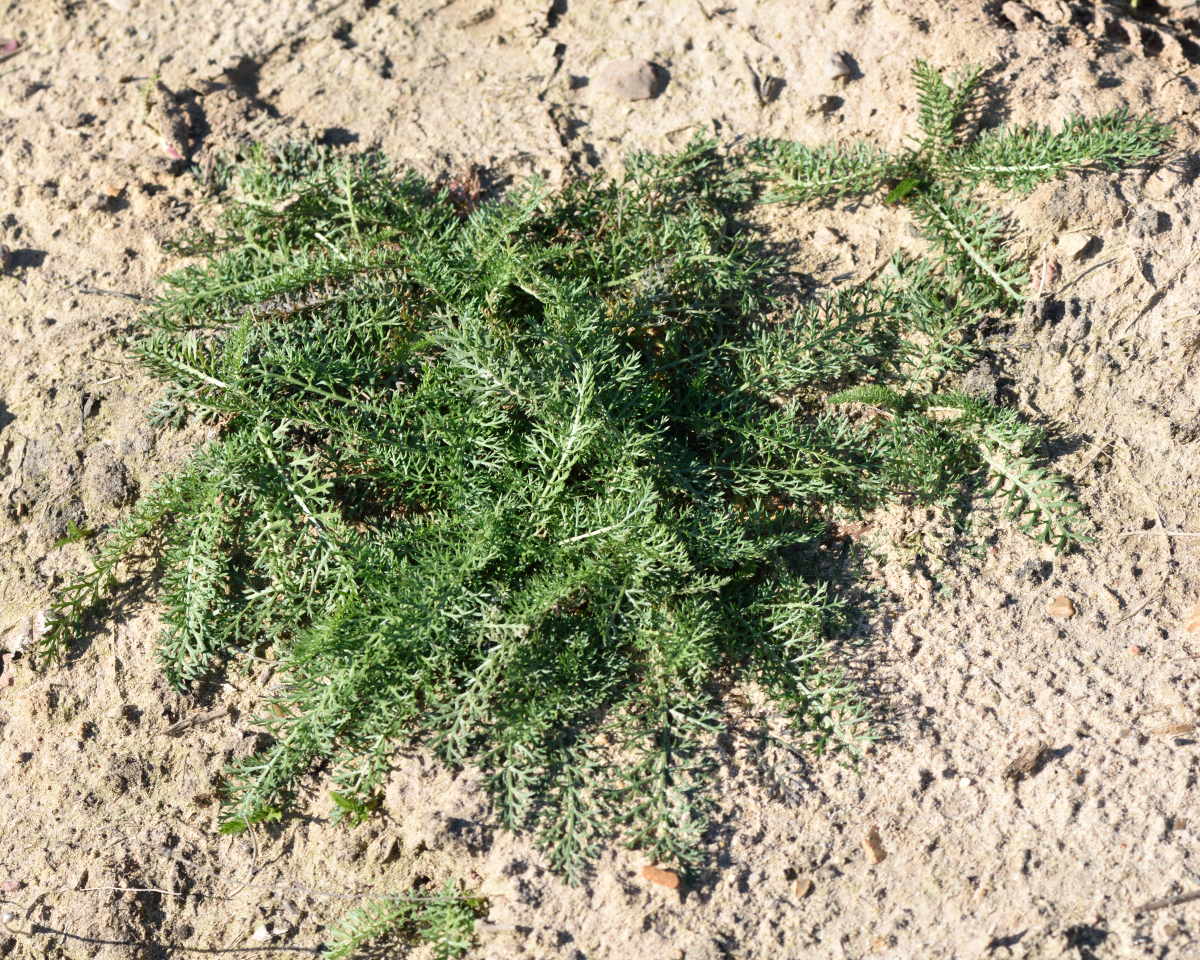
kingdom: Plantae
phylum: Tracheophyta
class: Magnoliopsida
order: Asterales
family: Asteraceae
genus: Achillea
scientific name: Achillea millefolium
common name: Yarrow
